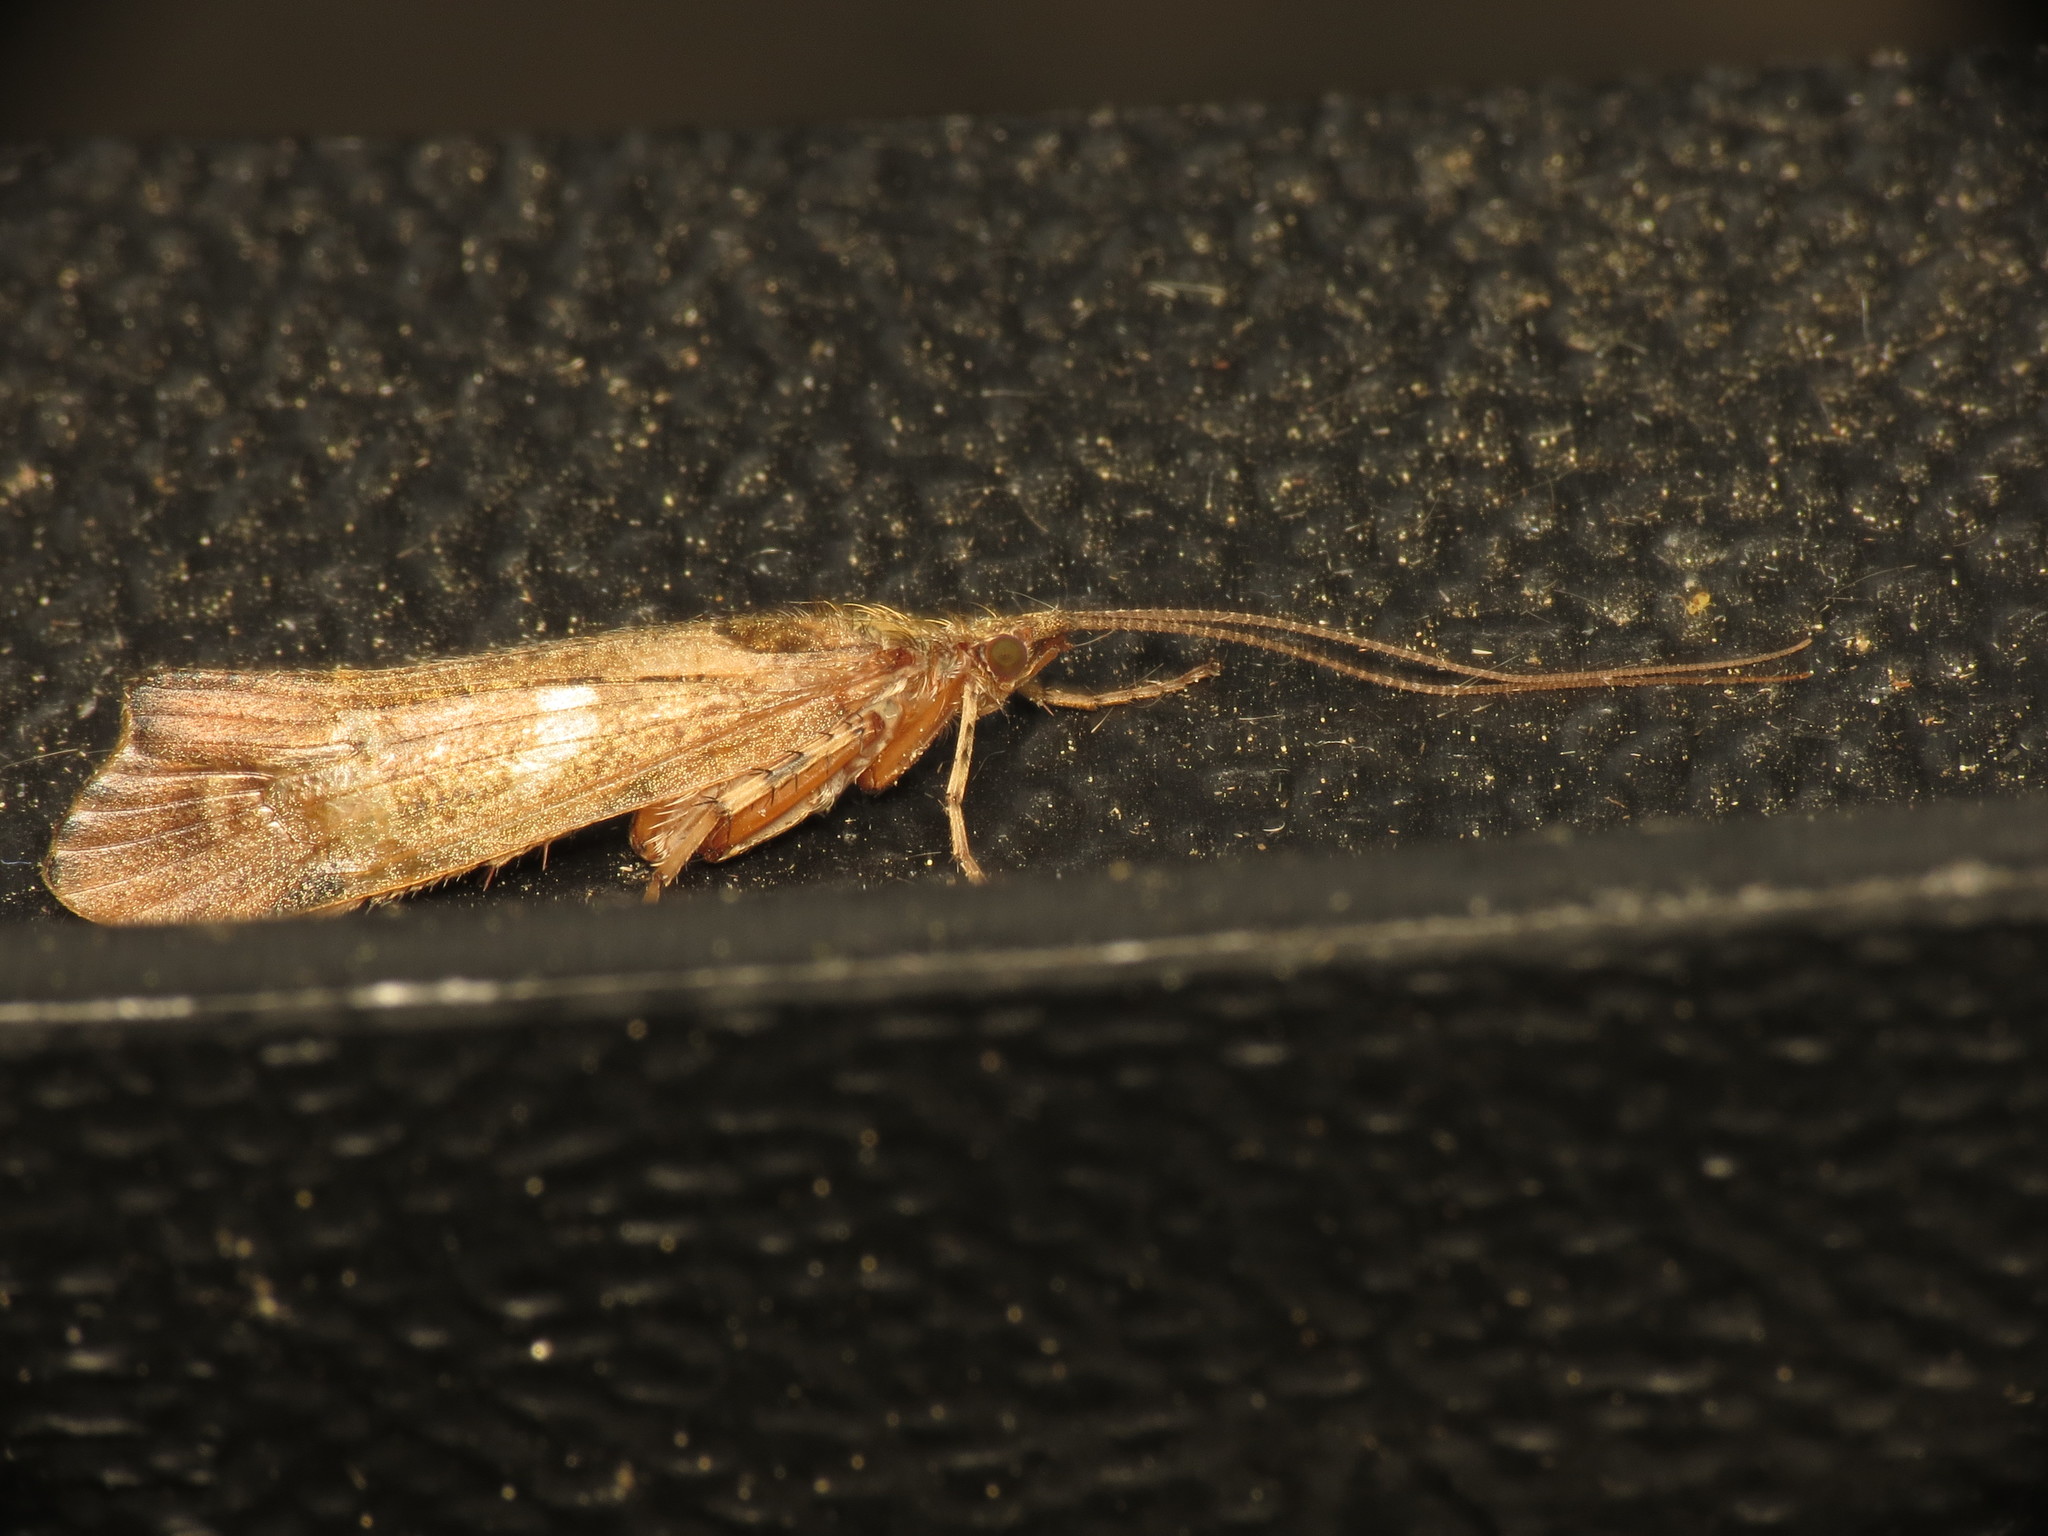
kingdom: Animalia
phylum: Arthropoda
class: Insecta
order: Trichoptera
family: Limnephilidae
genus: Glyphotaelius
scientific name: Glyphotaelius pellucidus
